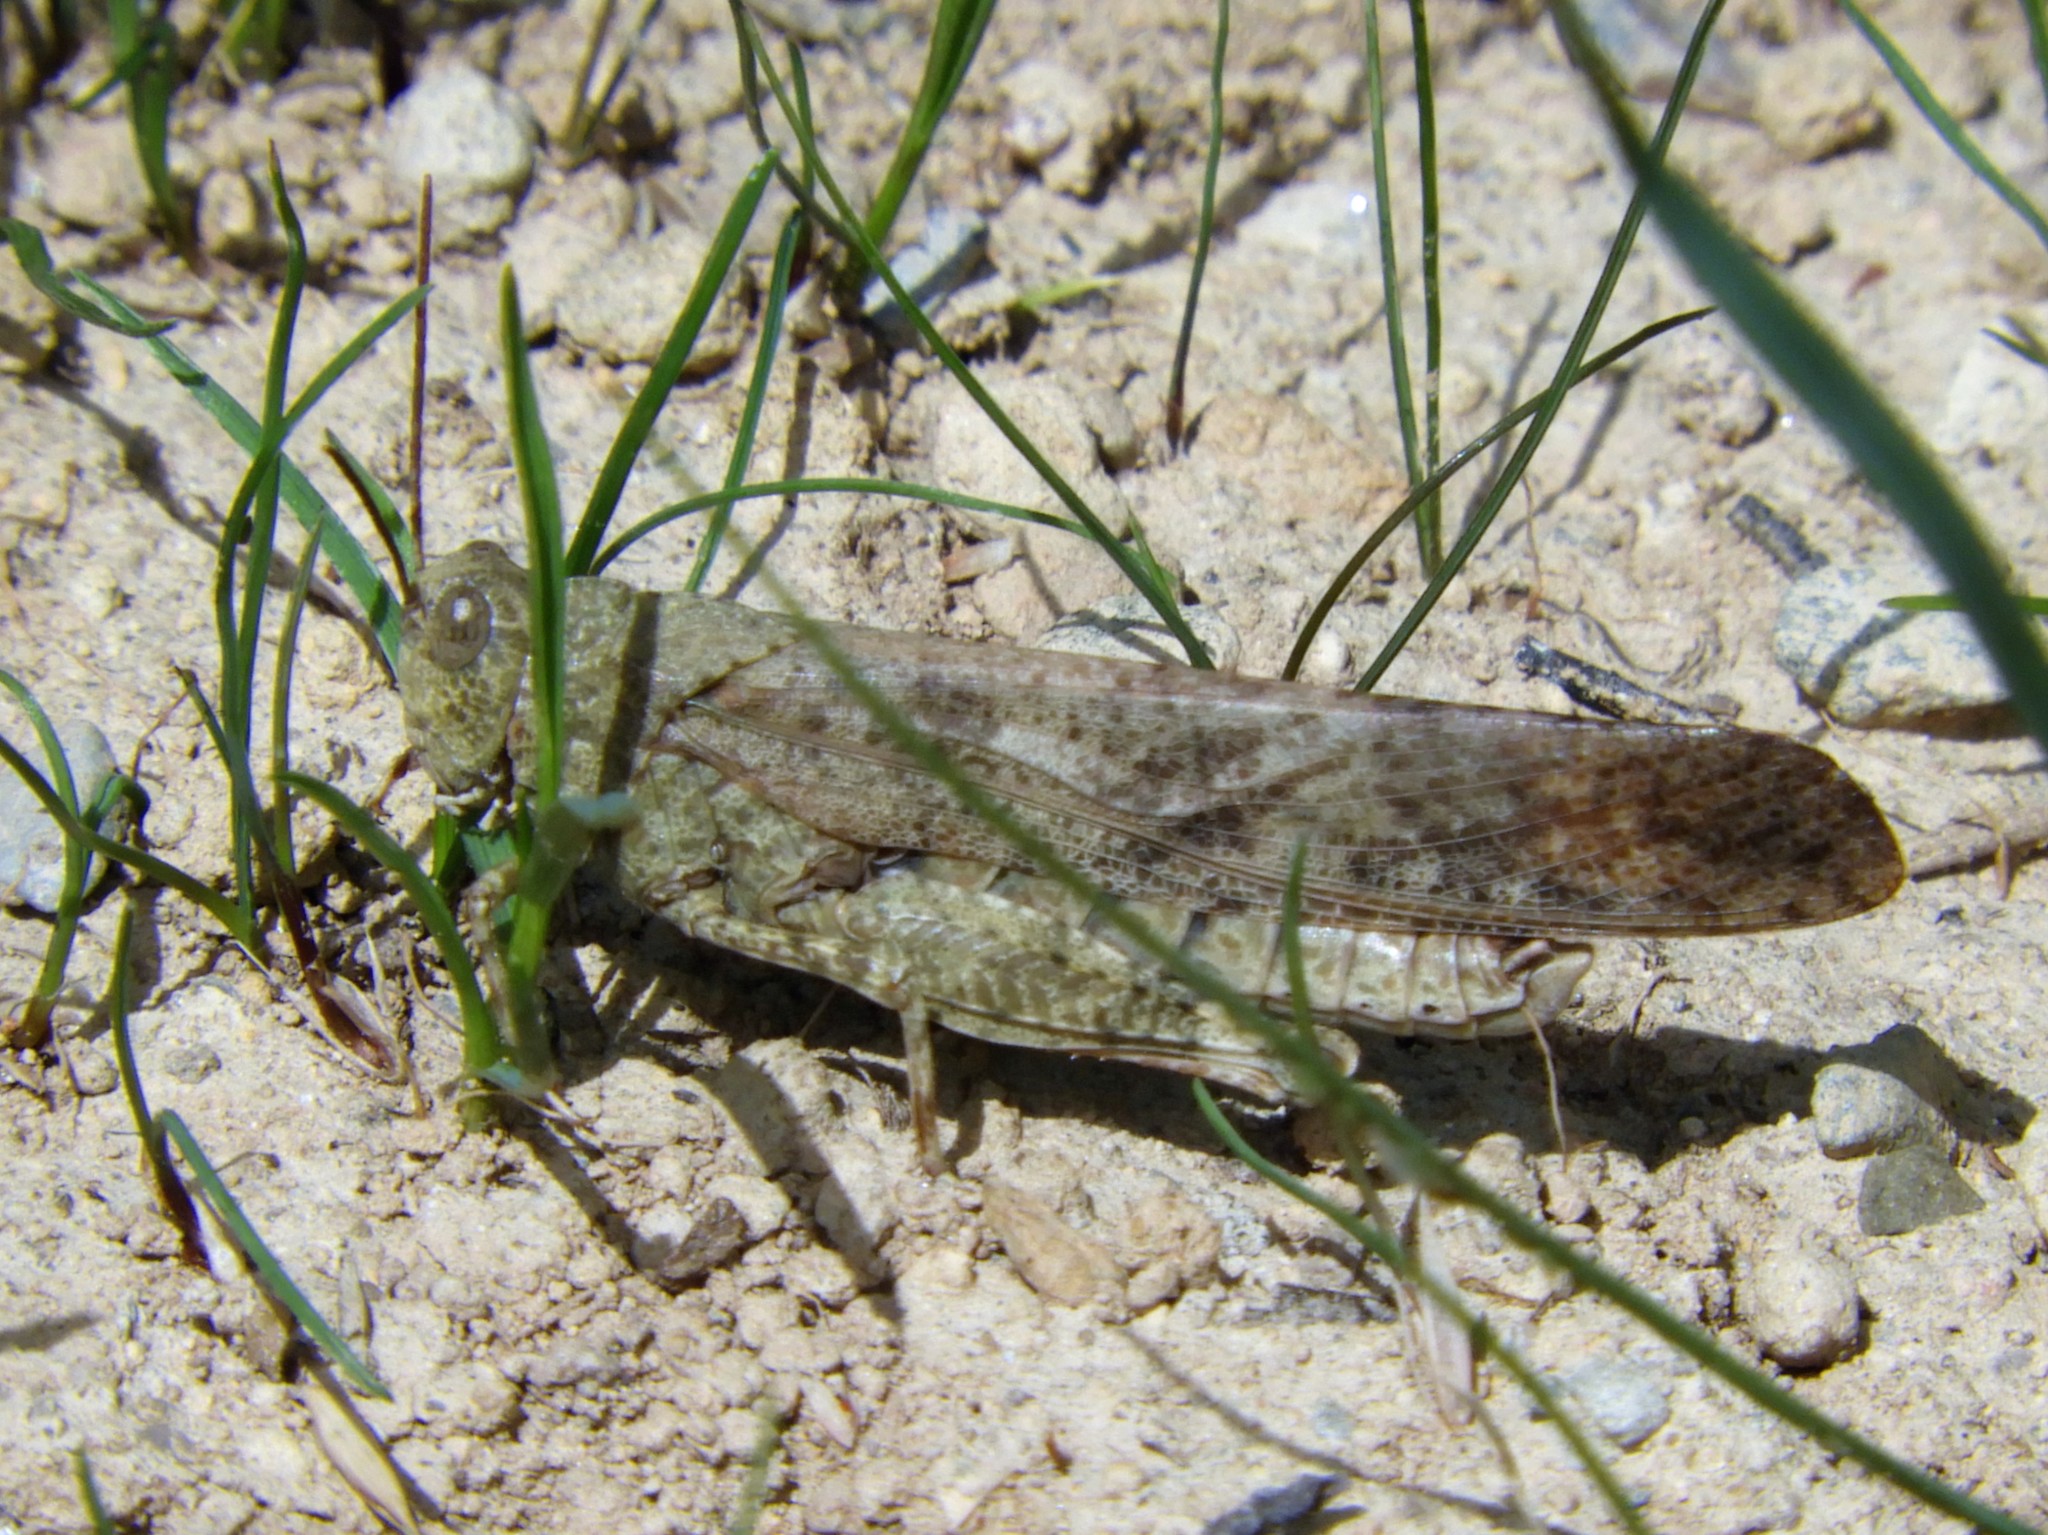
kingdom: Animalia
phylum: Arthropoda
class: Insecta
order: Orthoptera
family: Acrididae
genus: Dissosteira
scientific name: Dissosteira carolina
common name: Carolina grasshopper
